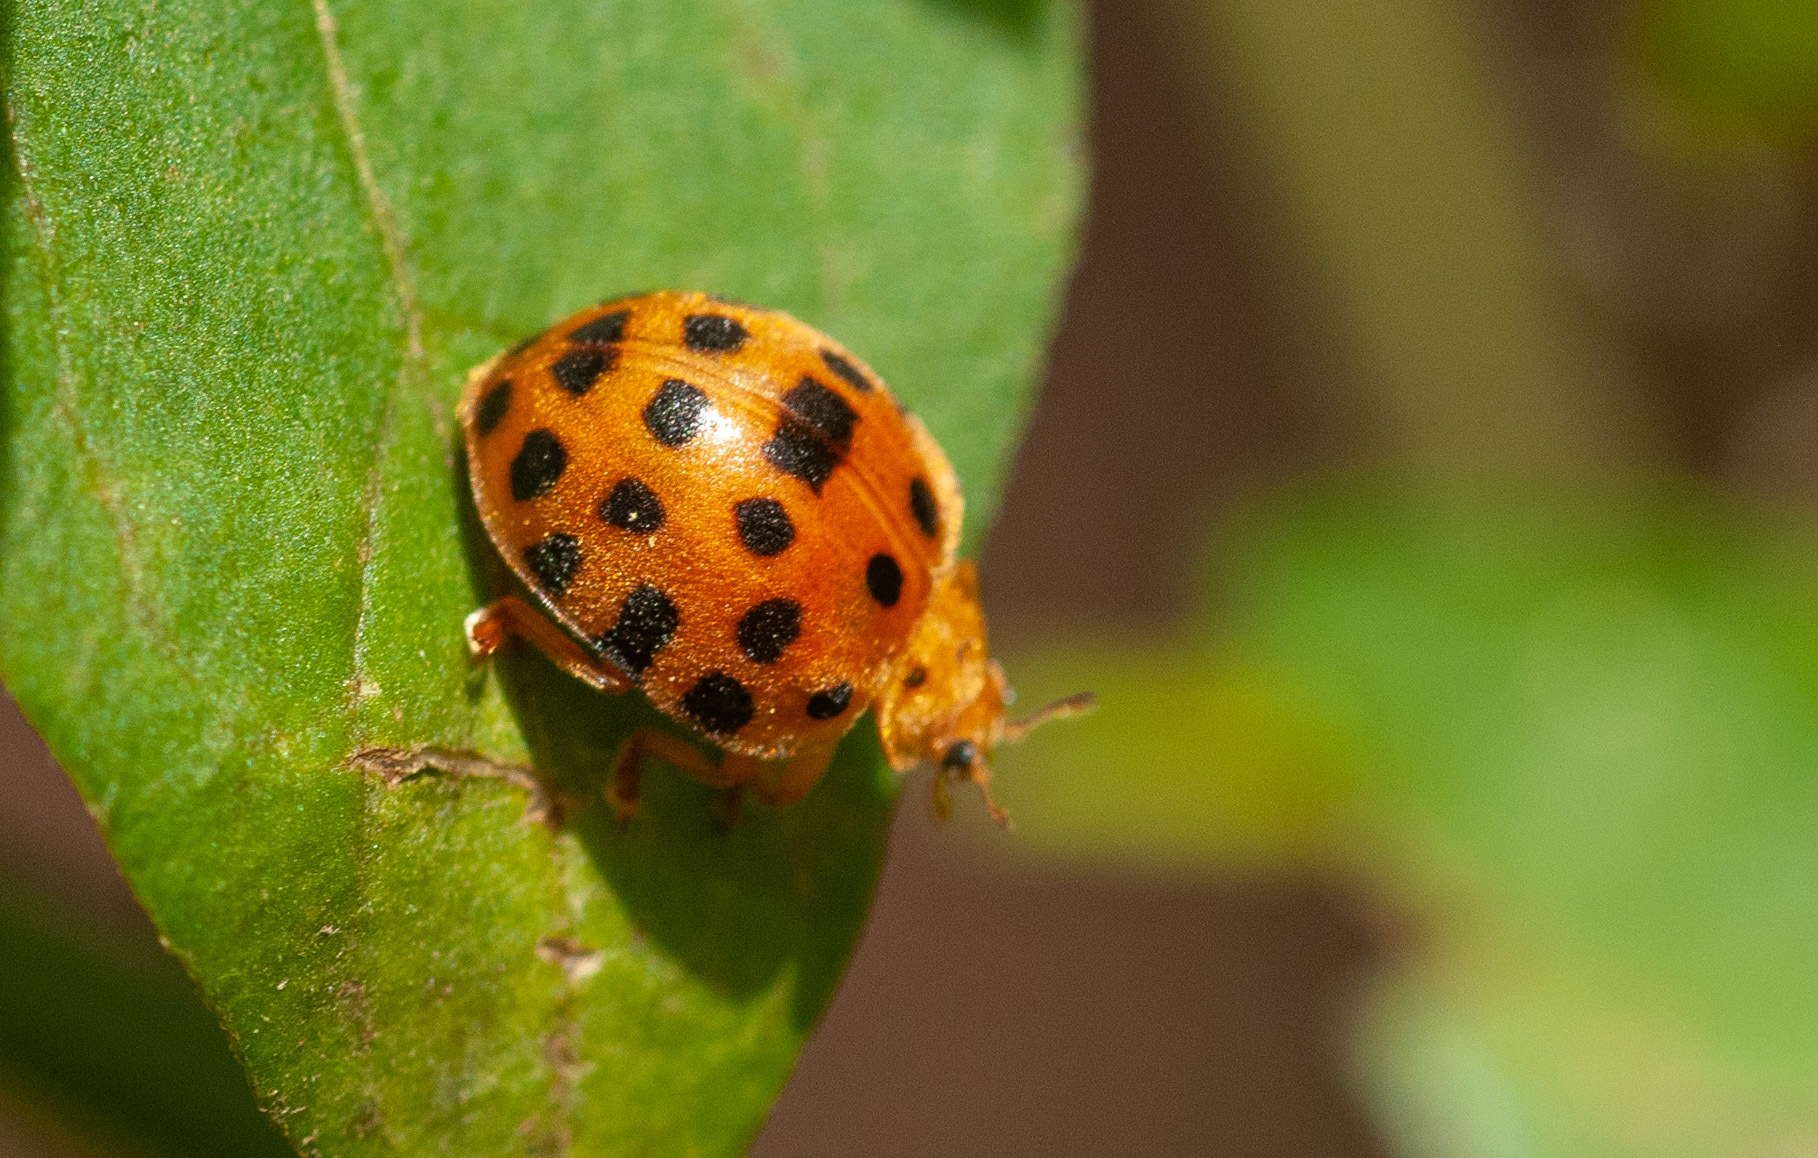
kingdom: Animalia
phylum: Arthropoda
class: Insecta
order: Coleoptera
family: Coccinellidae
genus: Henosepilachna
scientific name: Henosepilachna vigintioctopunctata
